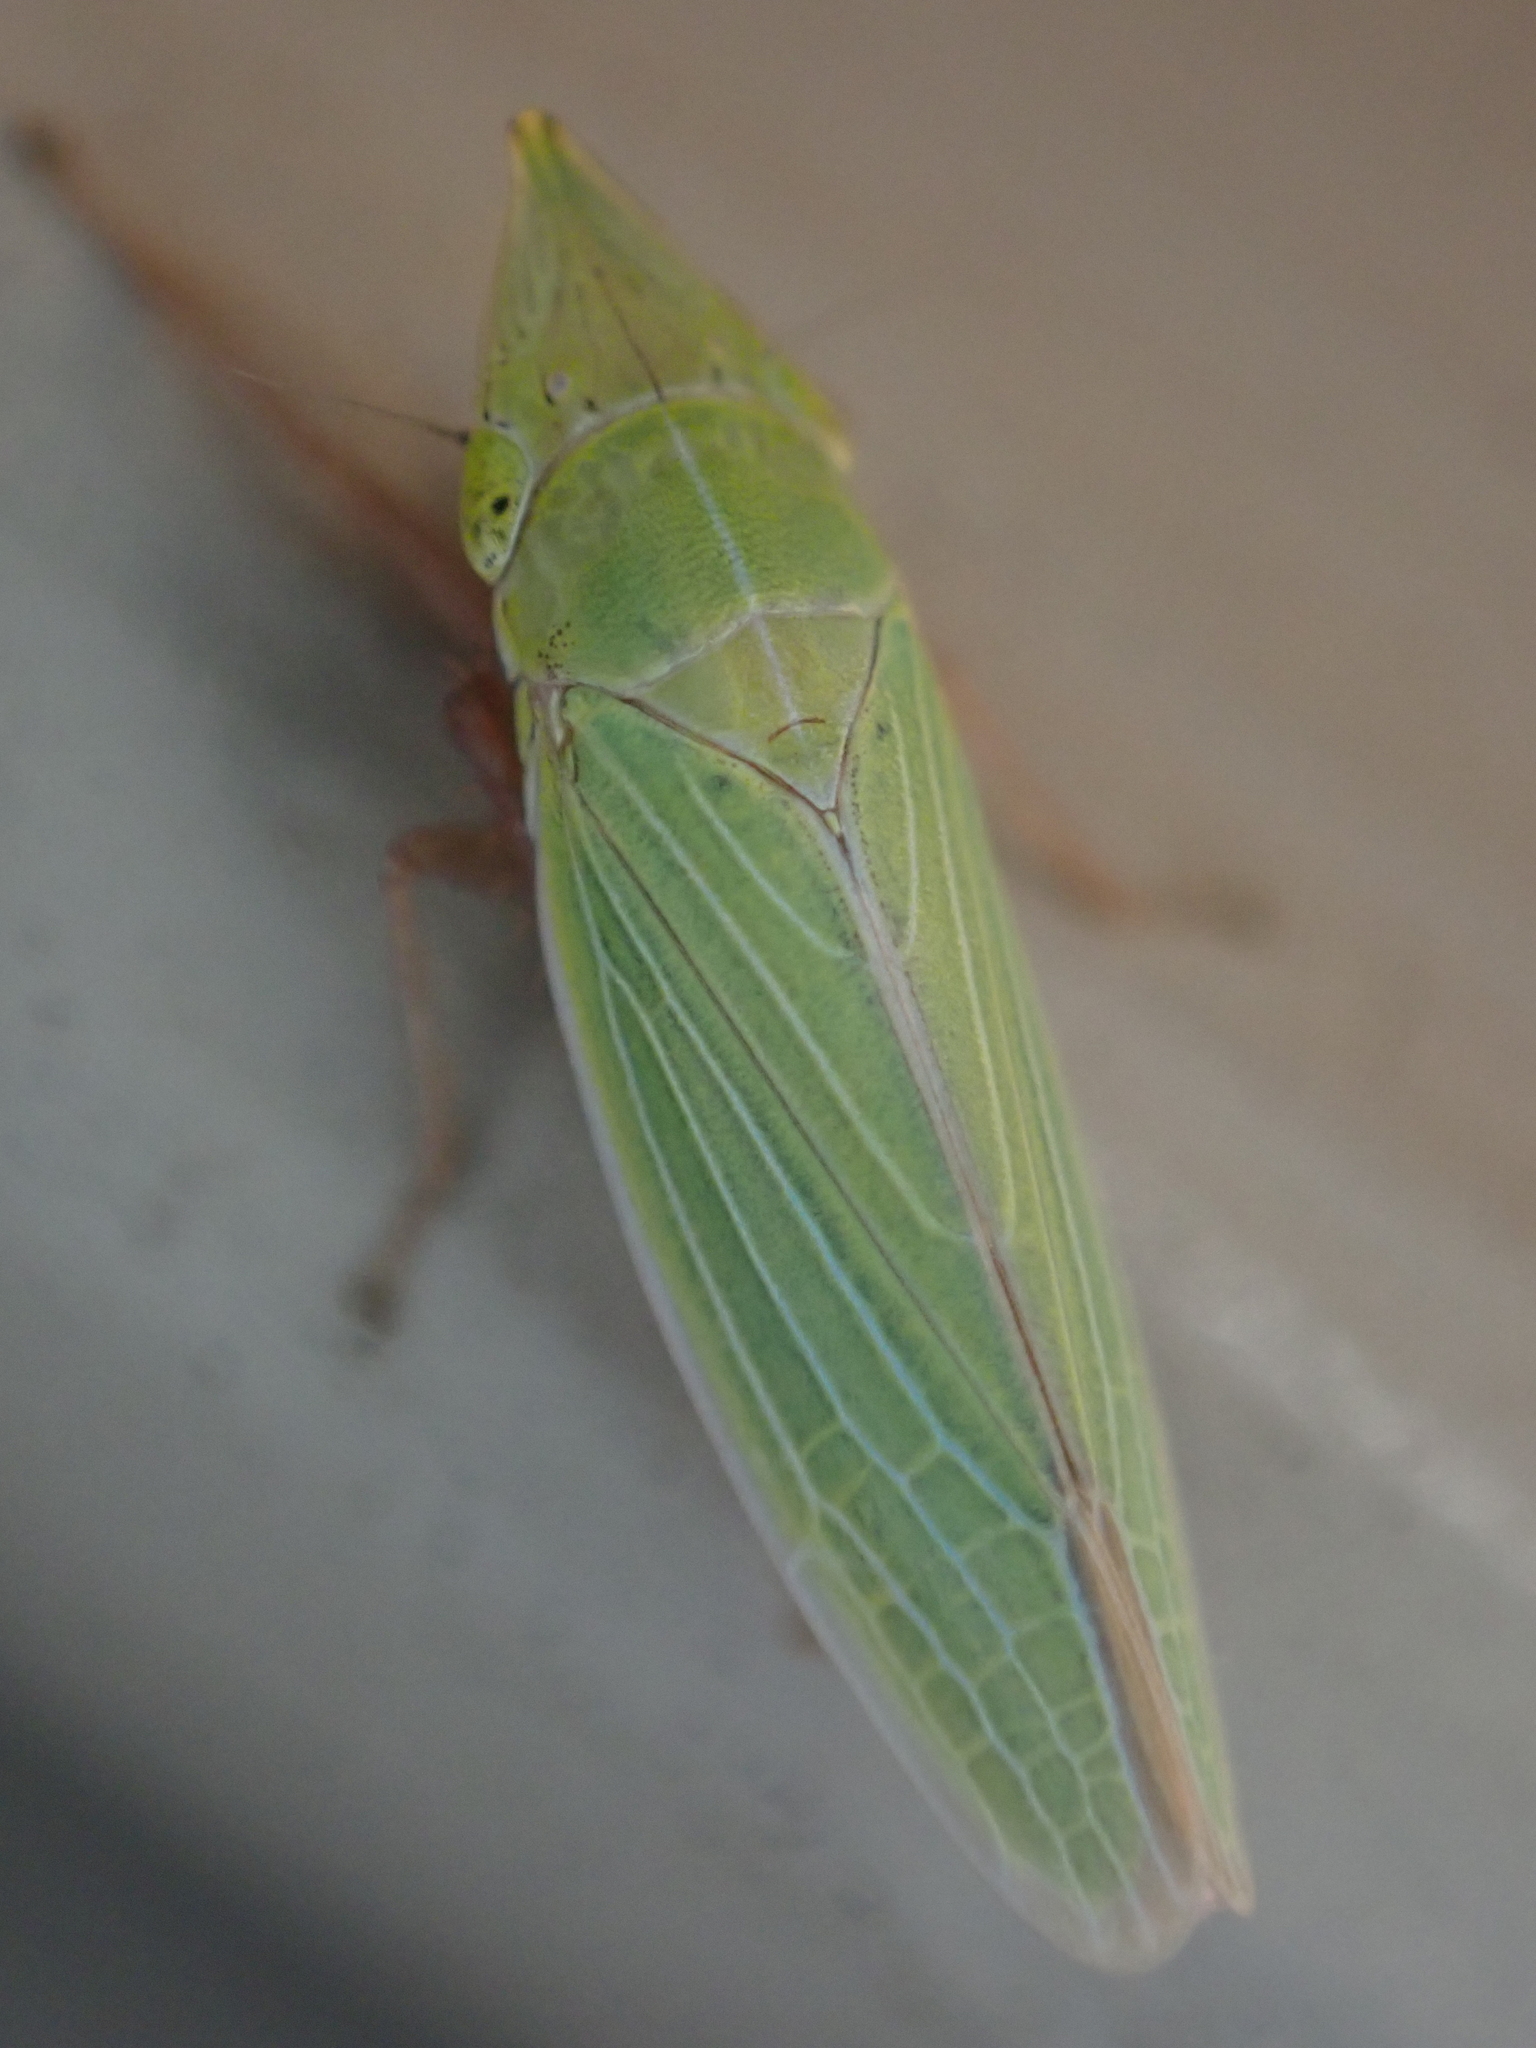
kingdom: Animalia
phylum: Arthropoda
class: Insecta
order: Hemiptera
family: Cicadellidae
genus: Draeculacephala
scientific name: Draeculacephala antica
